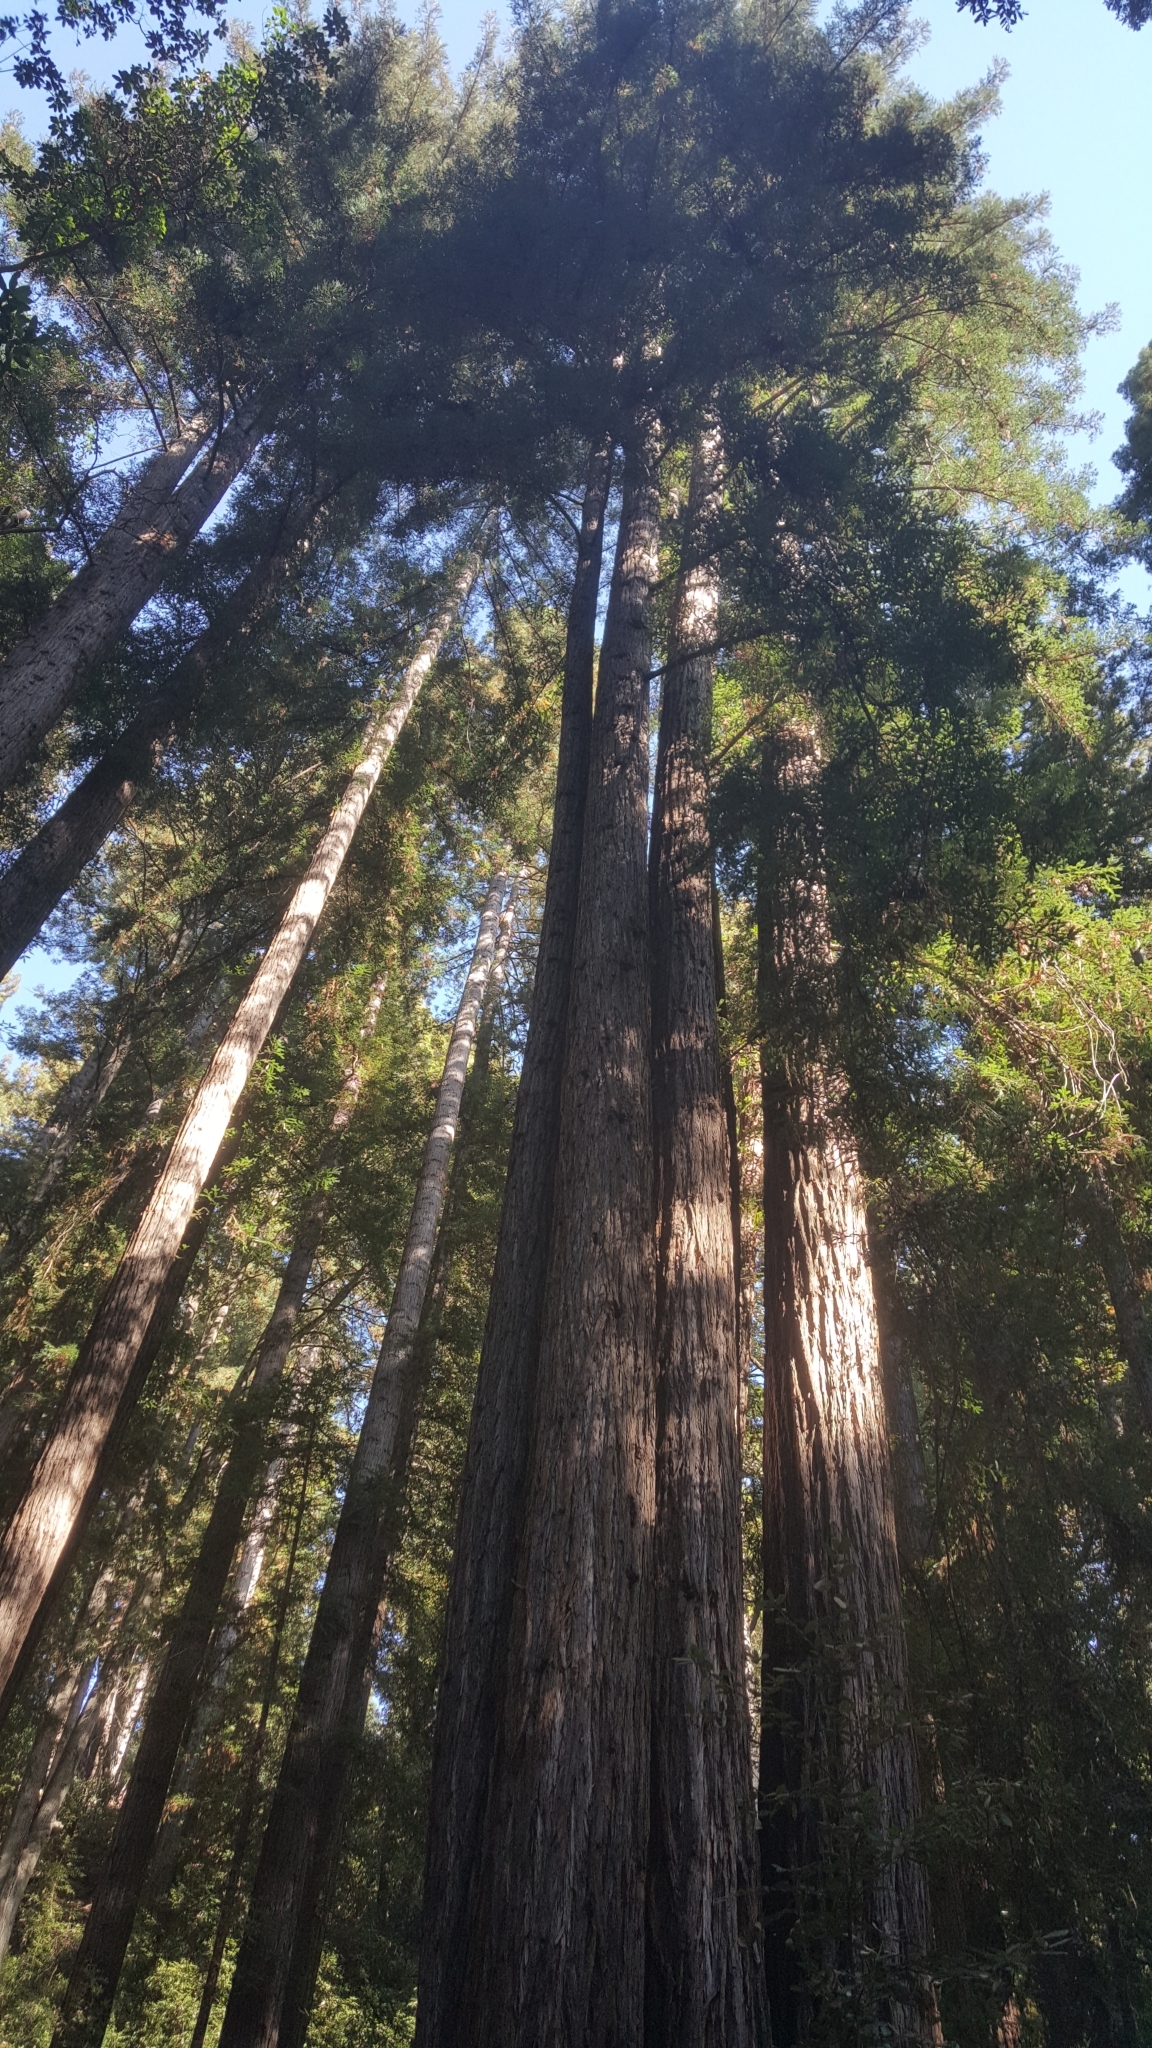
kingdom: Plantae
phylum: Tracheophyta
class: Pinopsida
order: Pinales
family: Cupressaceae
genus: Sequoia
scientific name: Sequoia sempervirens
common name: Coast redwood
